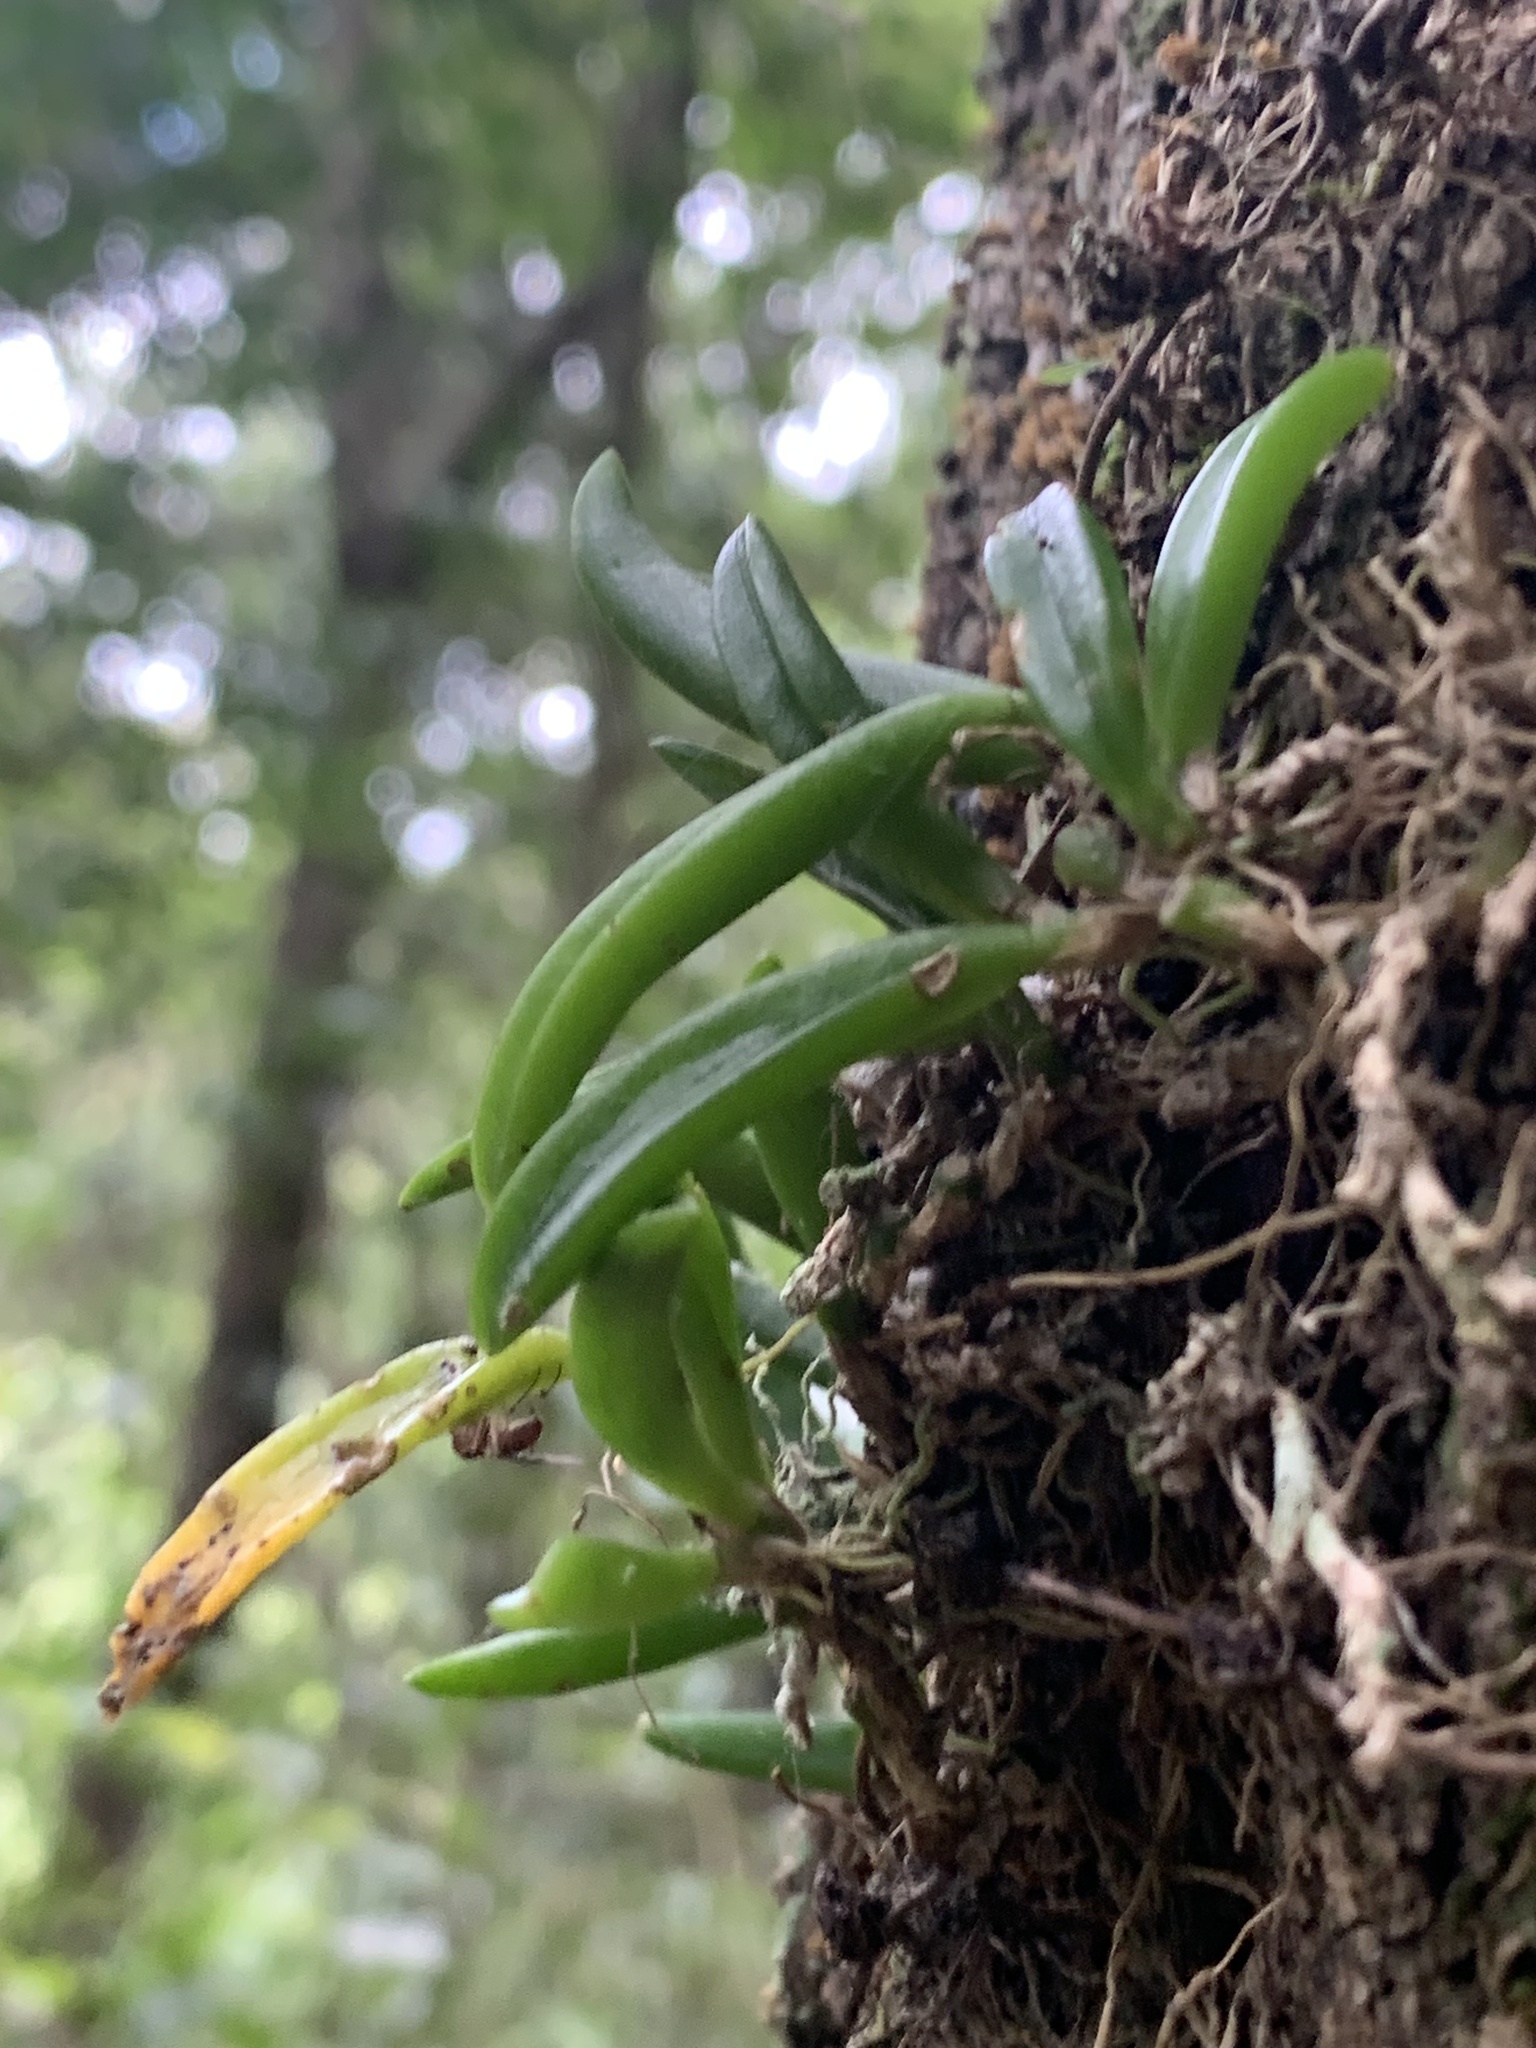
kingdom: Plantae
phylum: Tracheophyta
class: Liliopsida
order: Asparagales
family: Orchidaceae
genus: Bulbophyllum
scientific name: Bulbophyllum shepherdii
